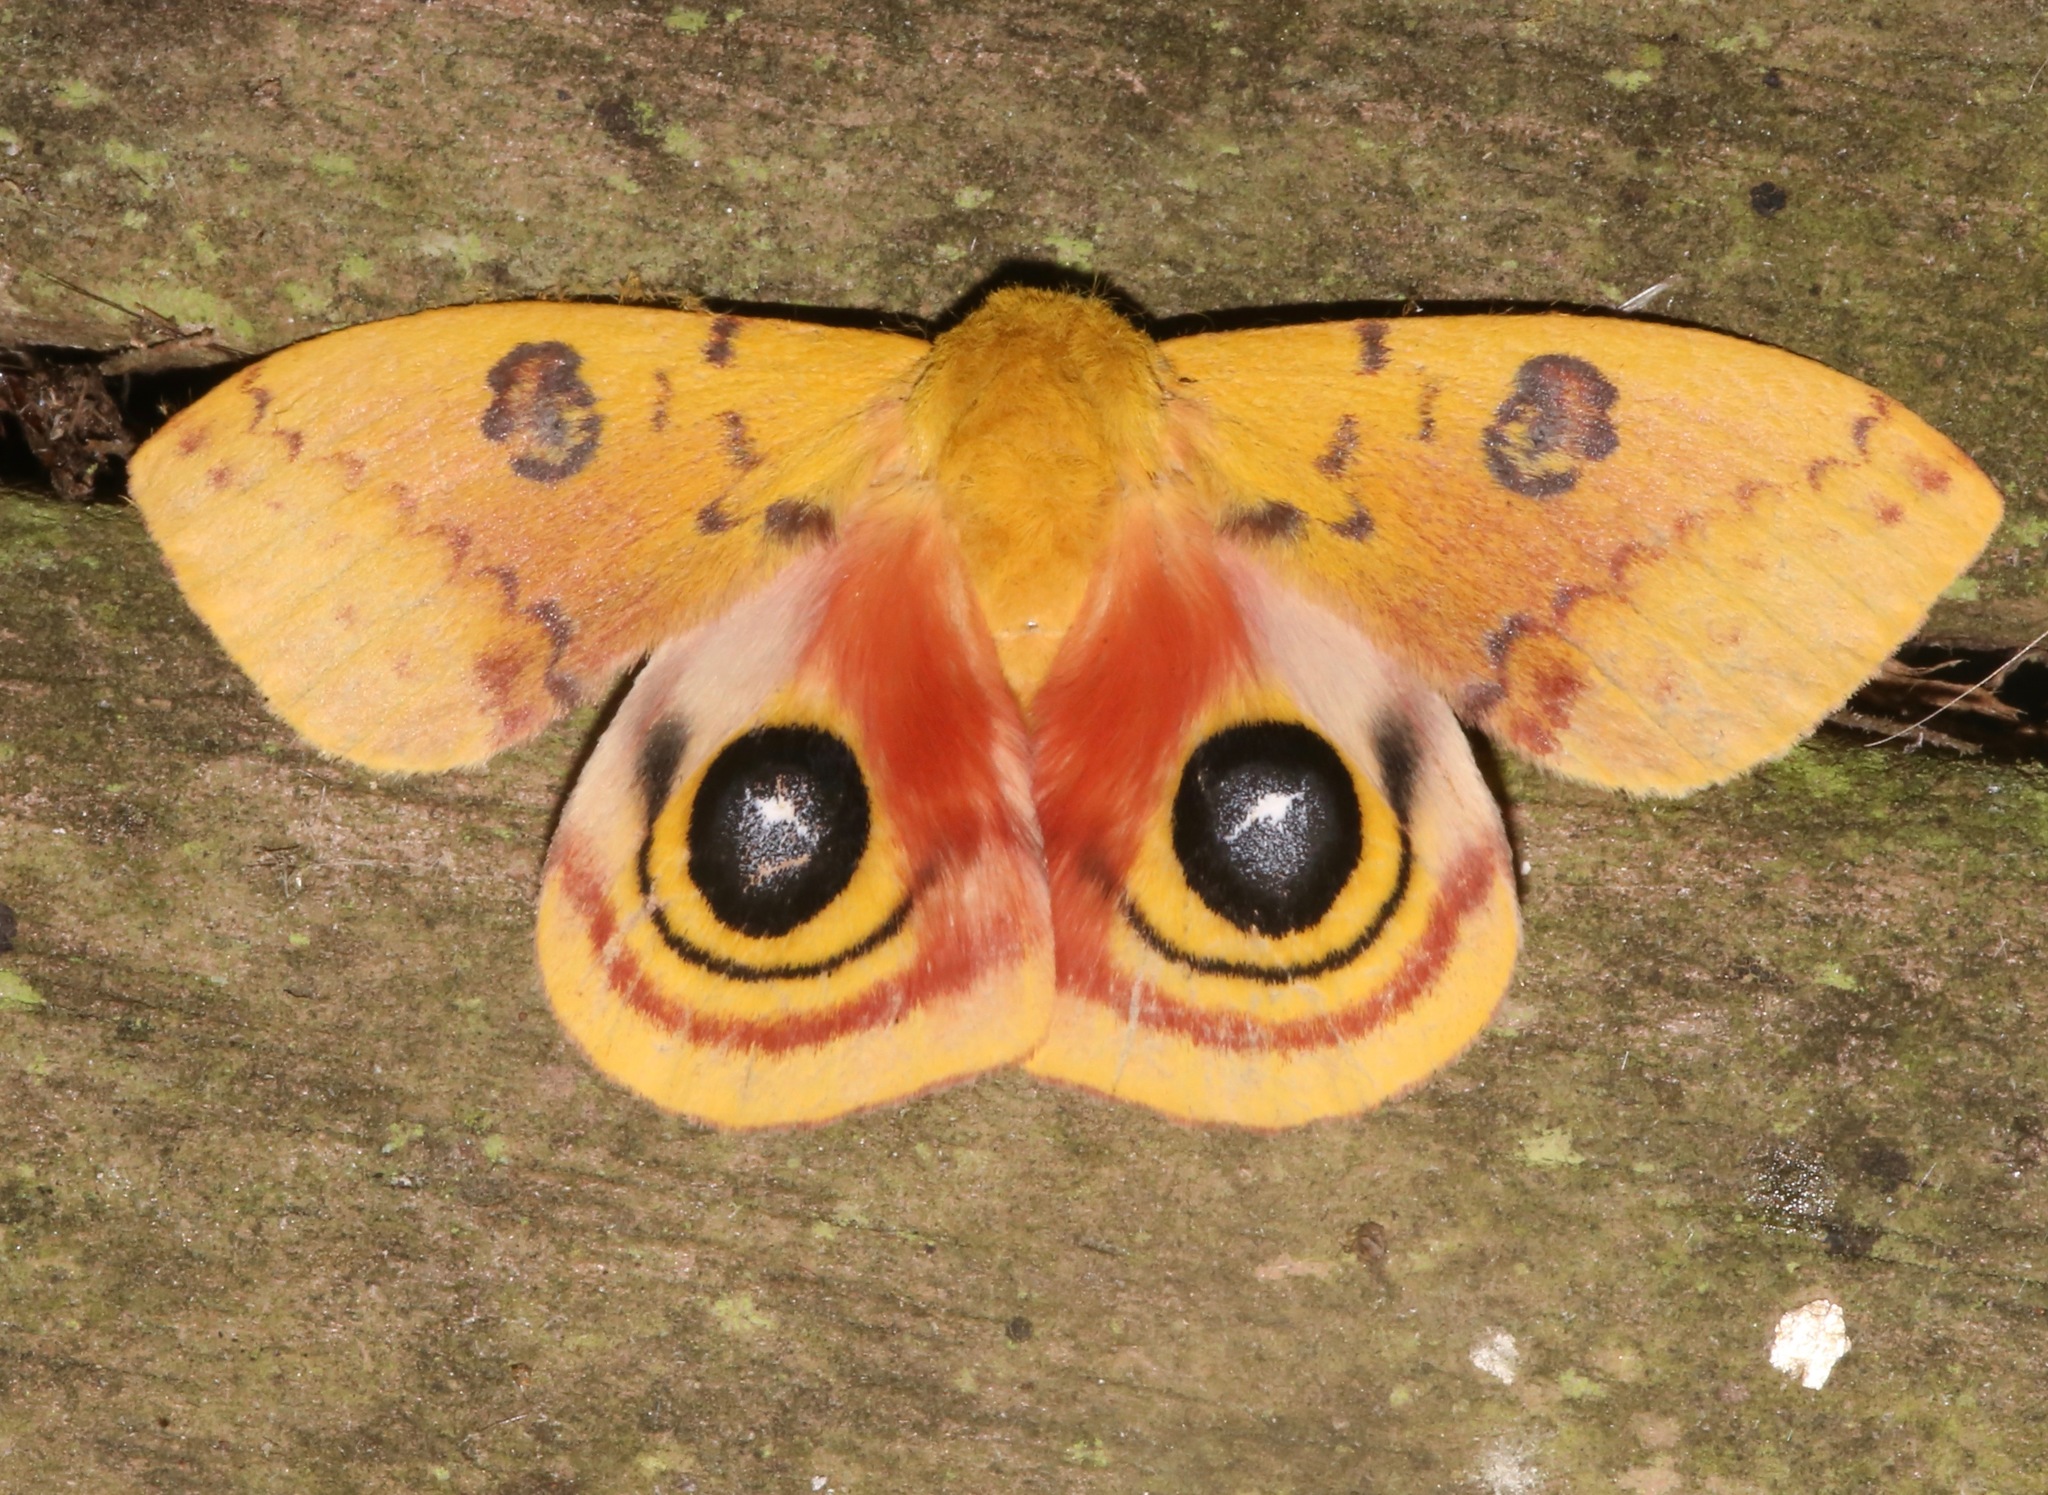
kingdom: Animalia
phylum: Arthropoda
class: Insecta
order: Lepidoptera
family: Saturniidae
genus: Automeris
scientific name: Automeris io
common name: Io moth
